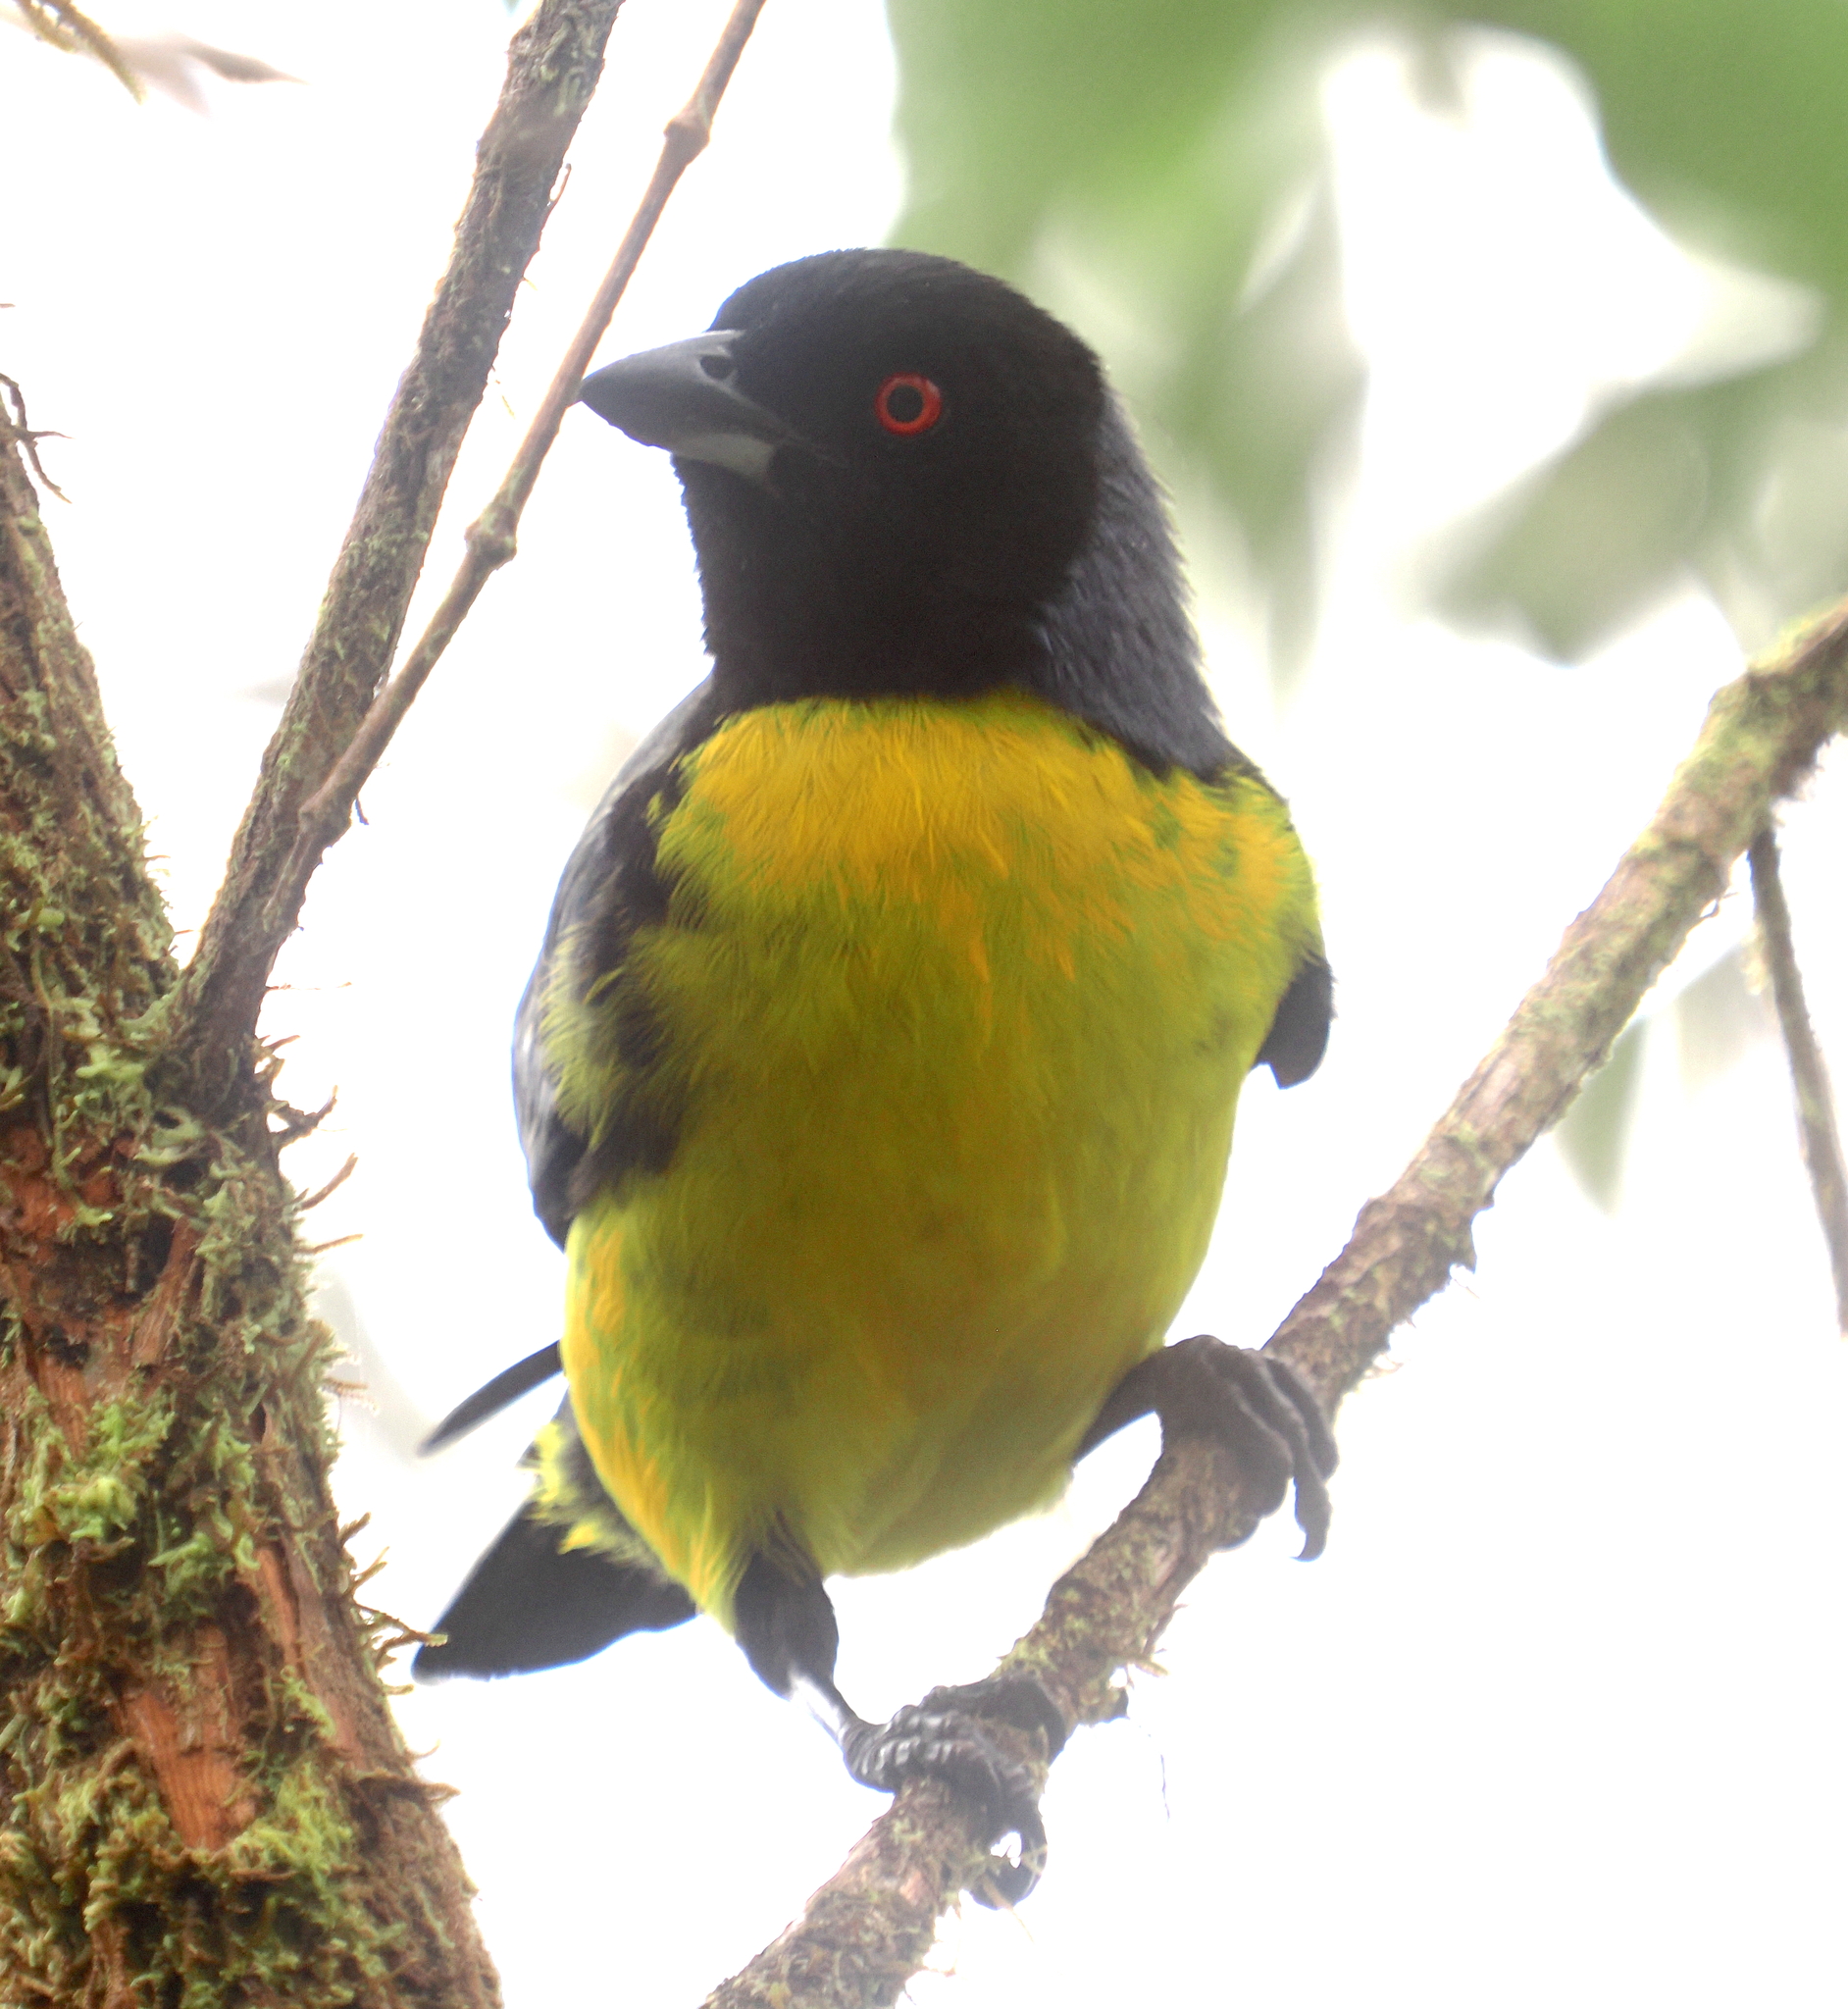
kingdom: Animalia
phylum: Chordata
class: Aves
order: Passeriformes
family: Thraupidae
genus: Buthraupis
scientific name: Buthraupis montana
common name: Hooded mountain tanager
